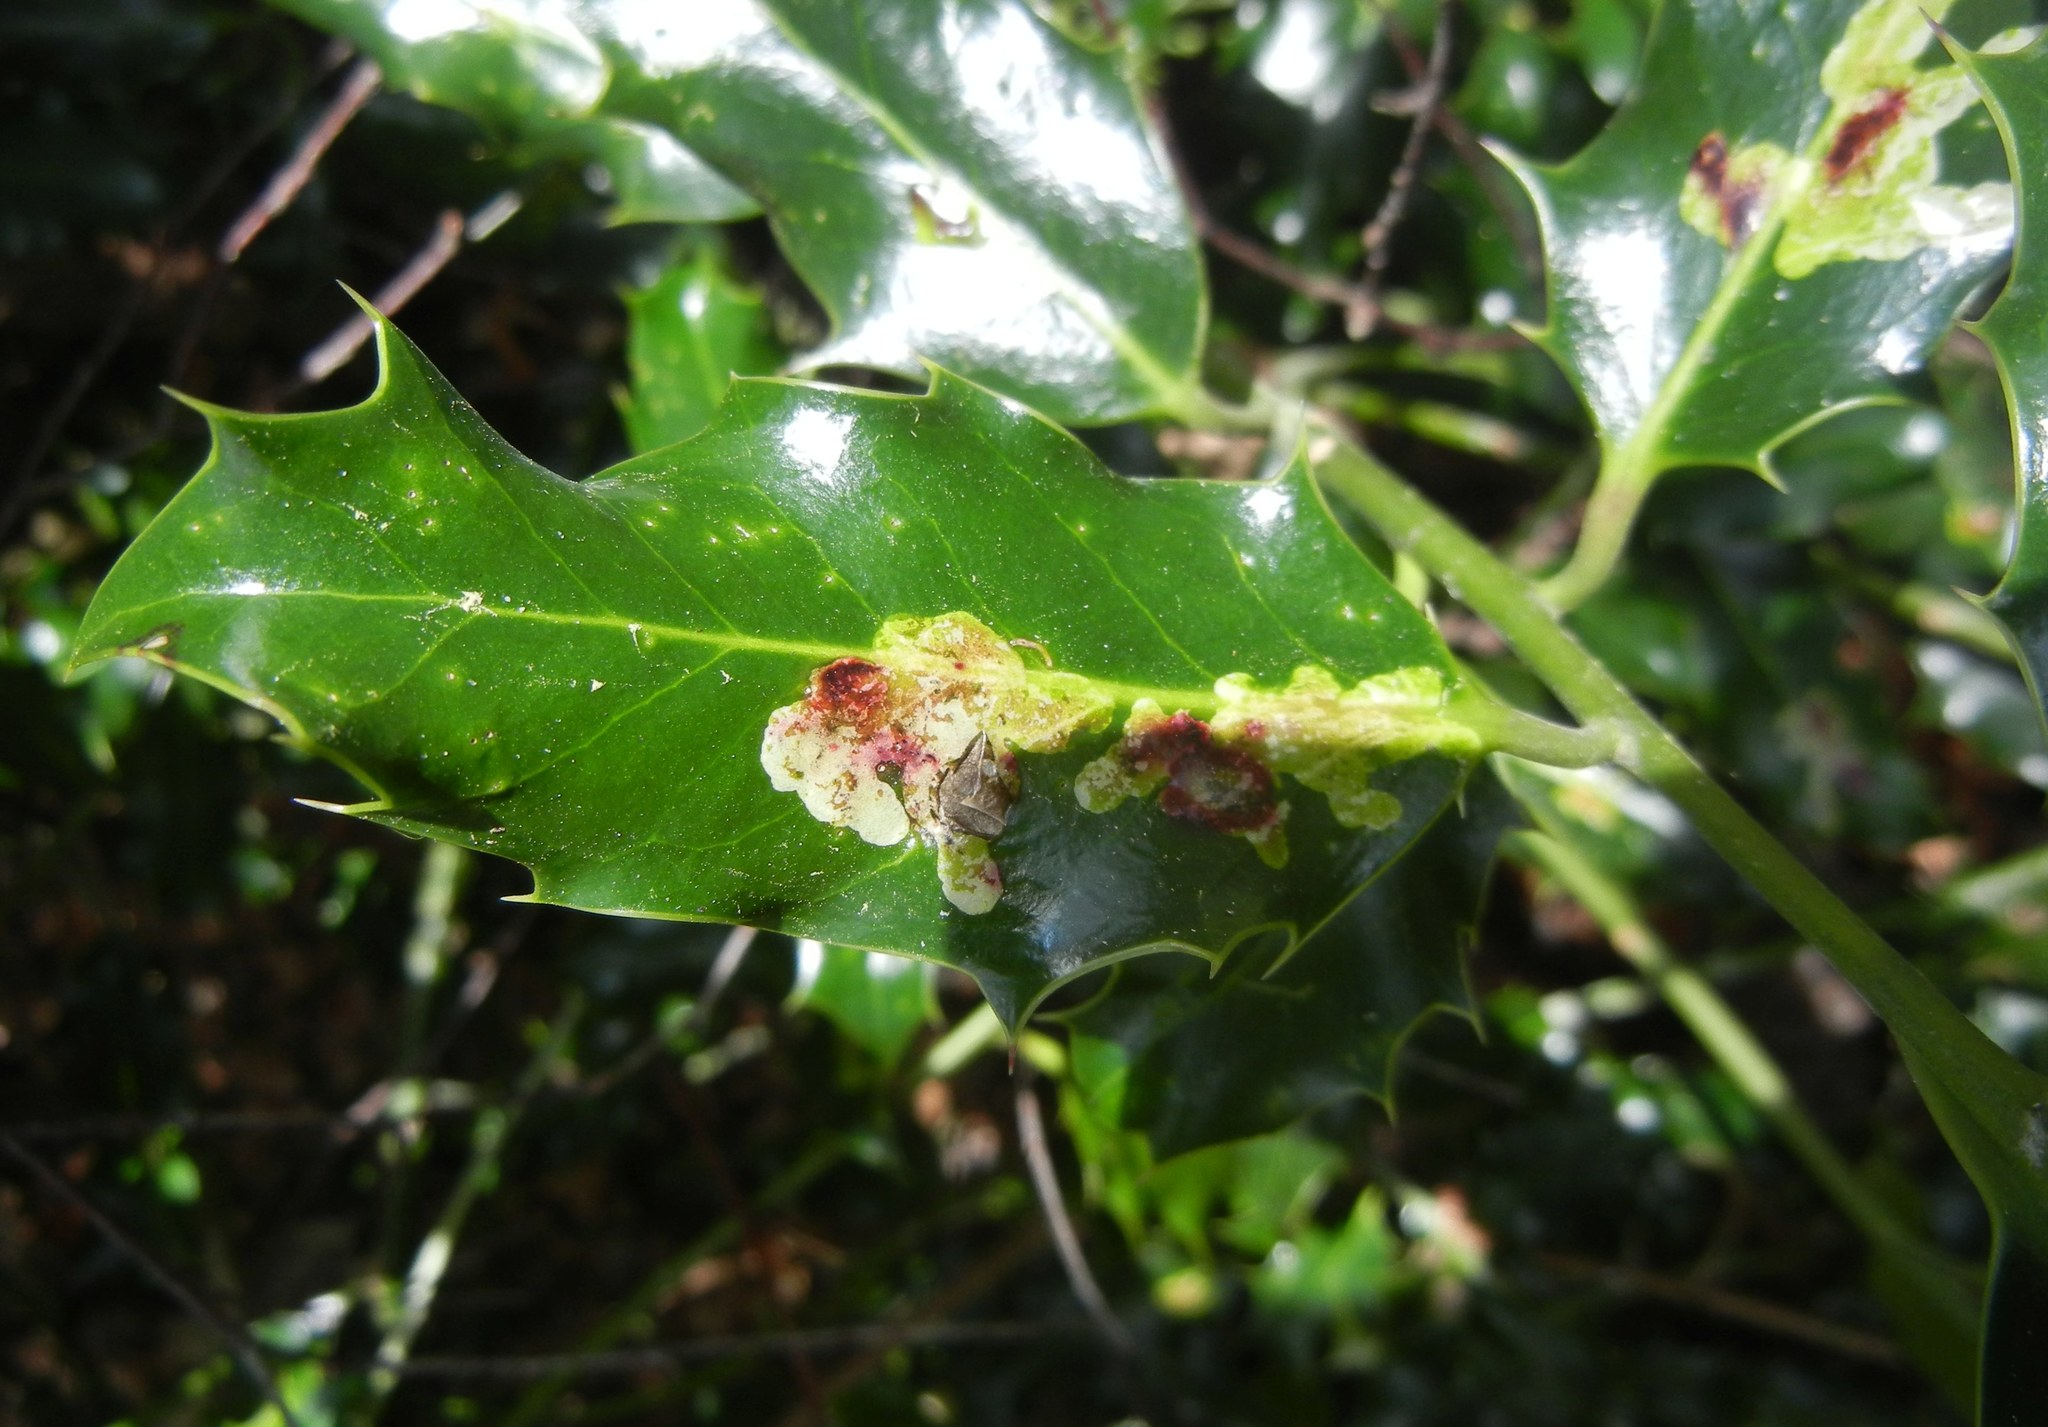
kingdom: Animalia
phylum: Arthropoda
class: Insecta
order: Diptera
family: Agromyzidae
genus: Phytomyza
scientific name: Phytomyza ilicis
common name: Holly leafminer
